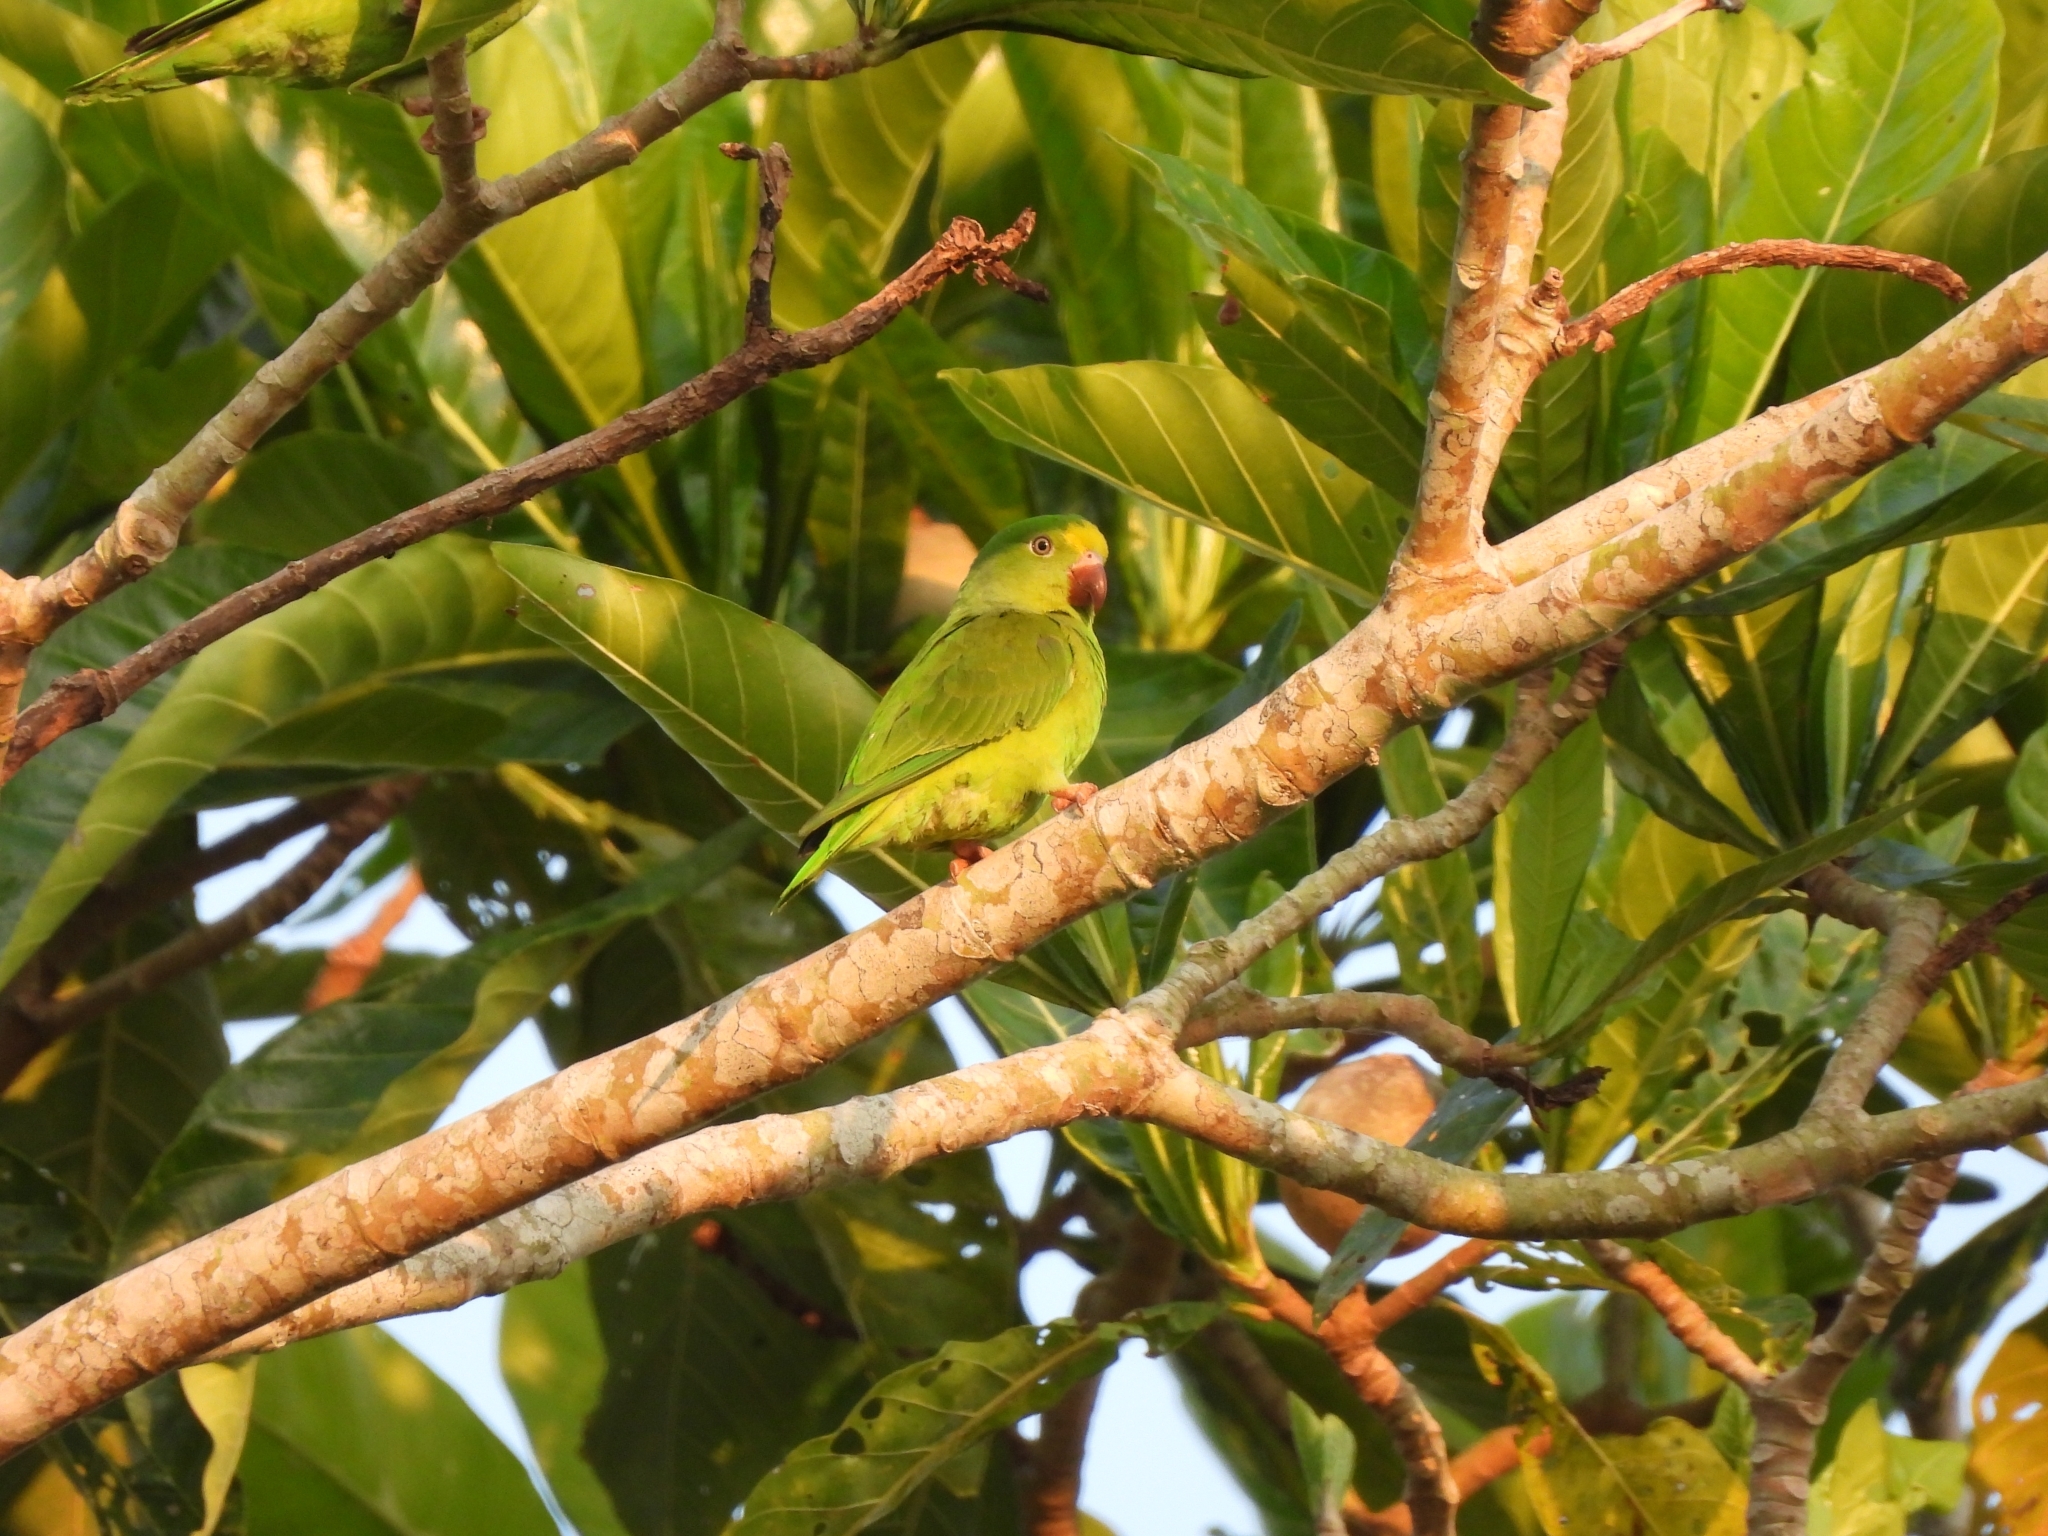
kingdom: Animalia
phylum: Chordata
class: Aves
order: Psittaciformes
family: Psittacidae
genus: Brotogeris
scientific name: Brotogeris sanctithomae
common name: Tui parakeet
